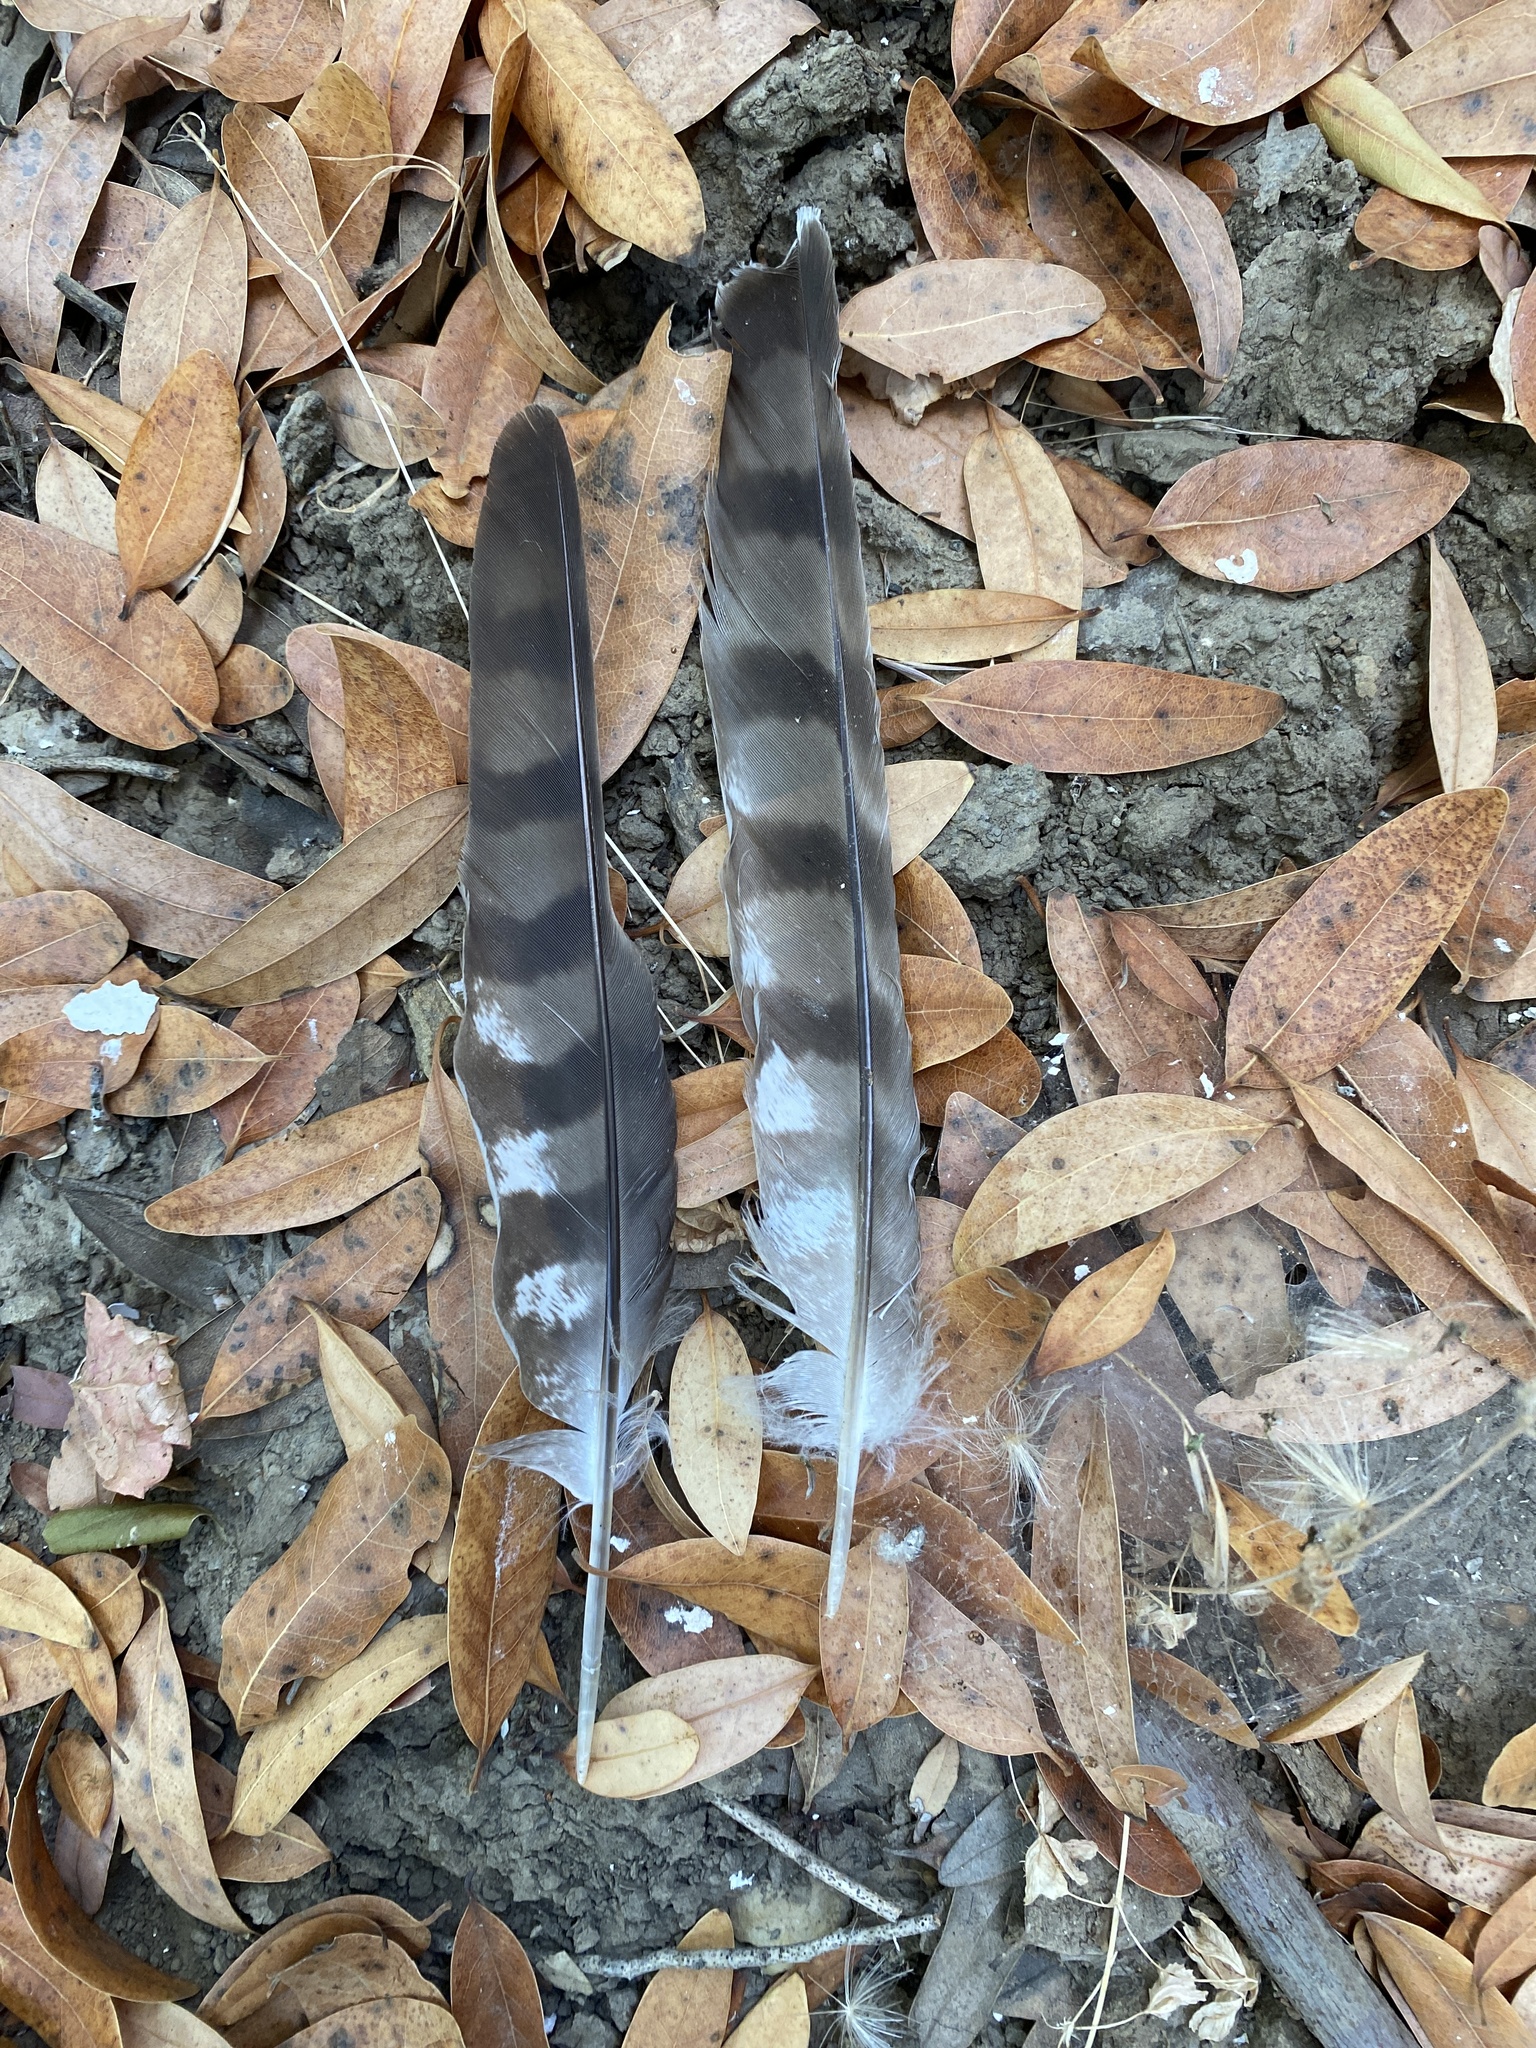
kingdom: Animalia
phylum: Chordata
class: Aves
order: Accipitriformes
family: Accipitridae
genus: Accipiter
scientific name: Accipiter cooperii
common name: Cooper's hawk
